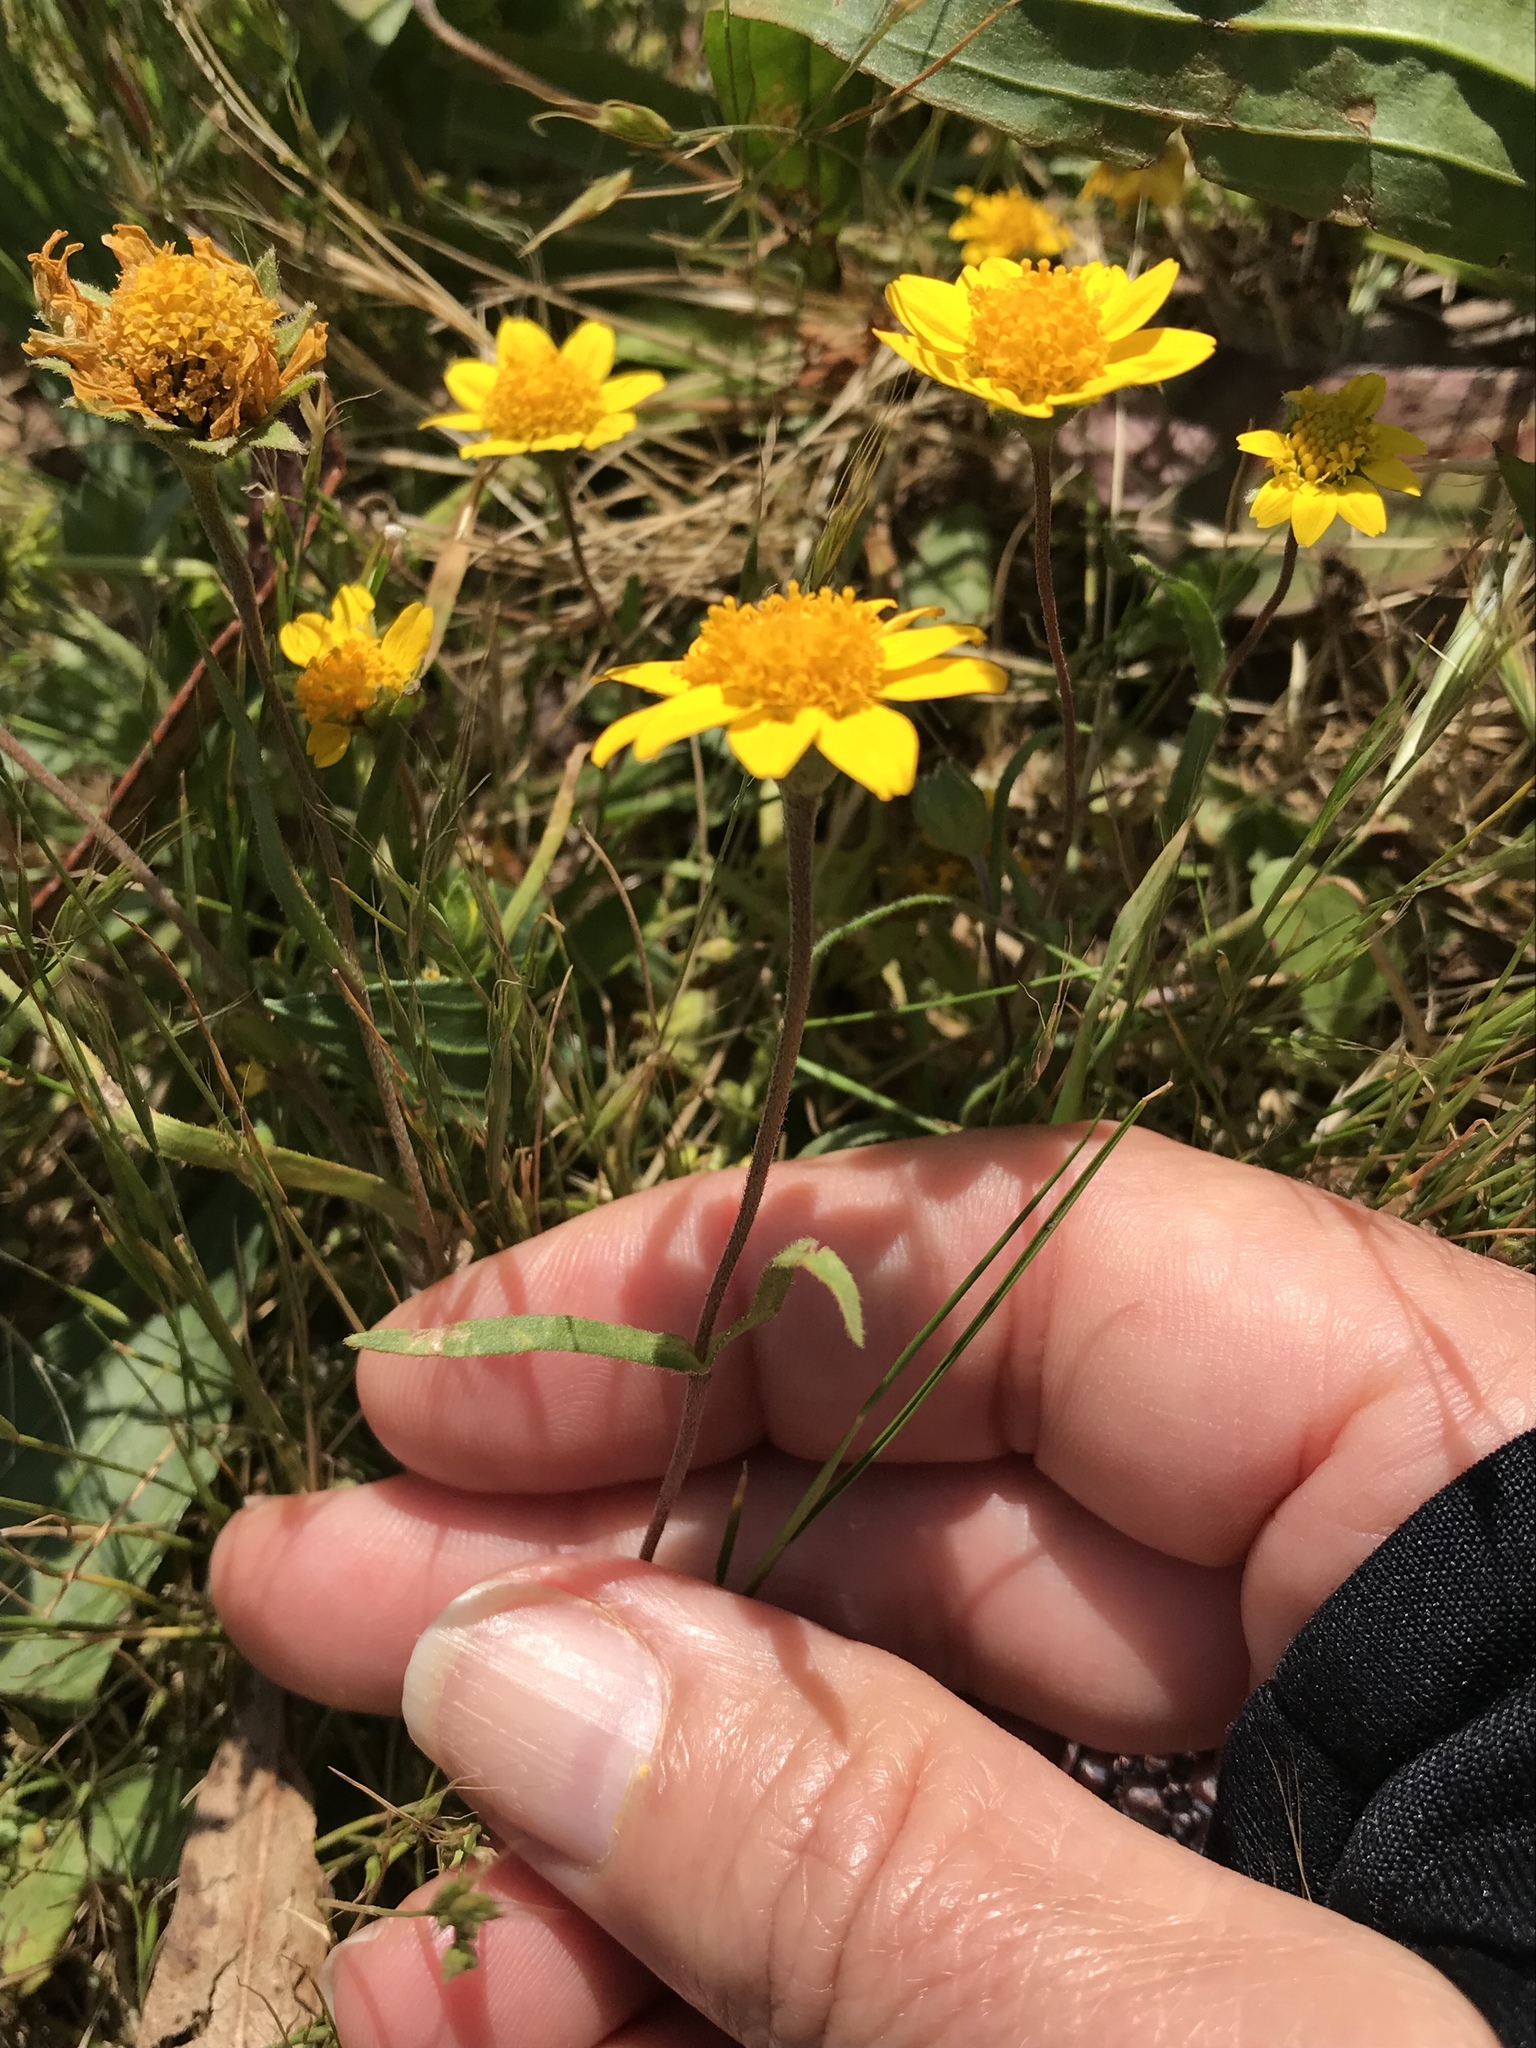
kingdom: Plantae
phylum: Tracheophyta
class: Magnoliopsida
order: Asterales
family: Asteraceae
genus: Lasthenia
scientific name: Lasthenia californica
